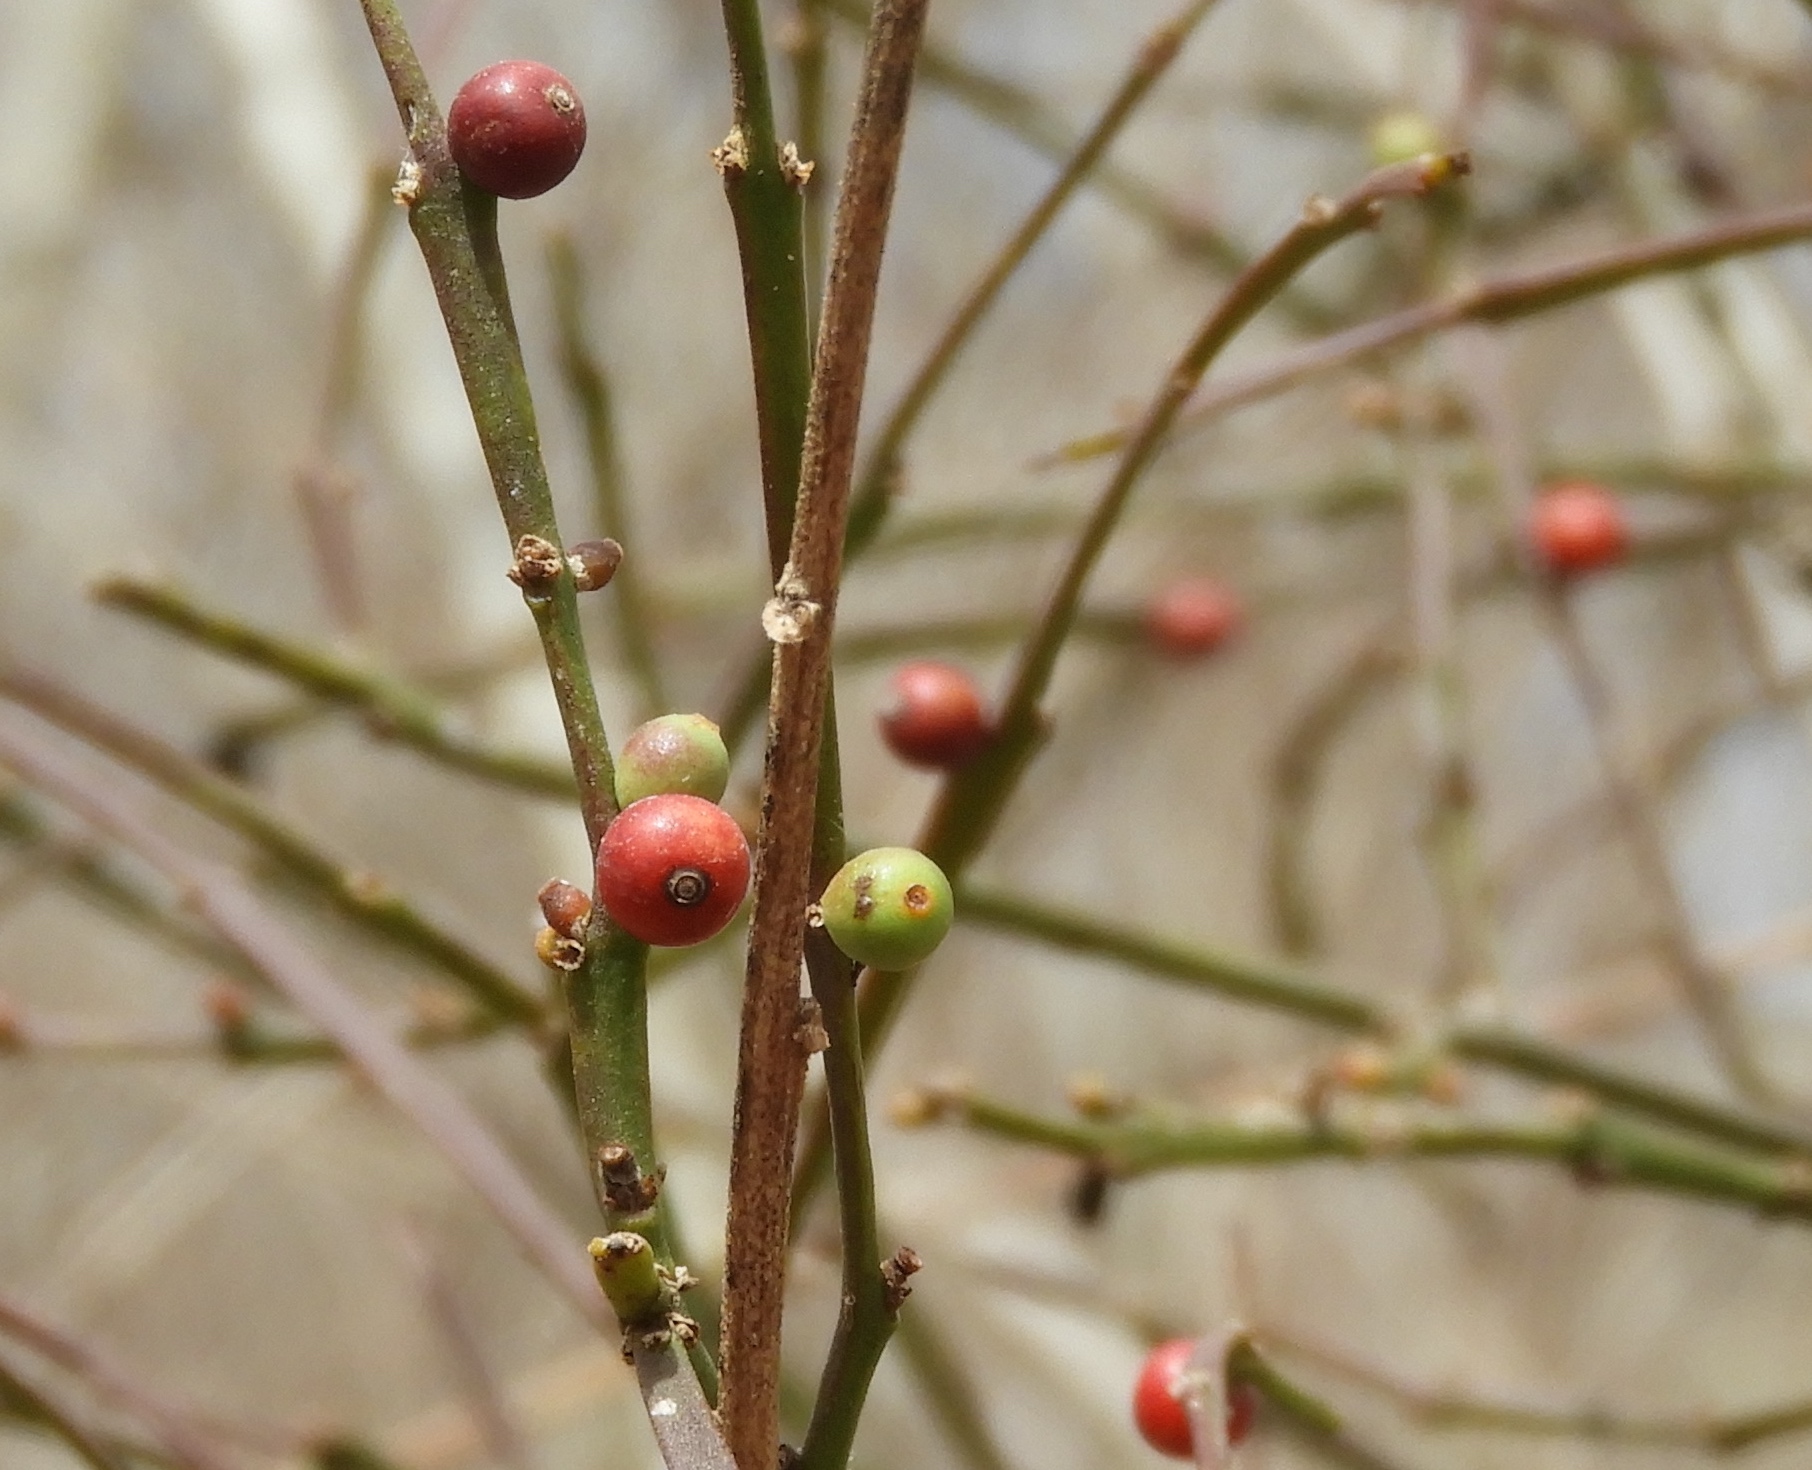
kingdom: Plantae
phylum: Tracheophyta
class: Magnoliopsida
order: Santalales
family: Viscaceae
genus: Phoradendron
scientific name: Phoradendron quadrangulare
